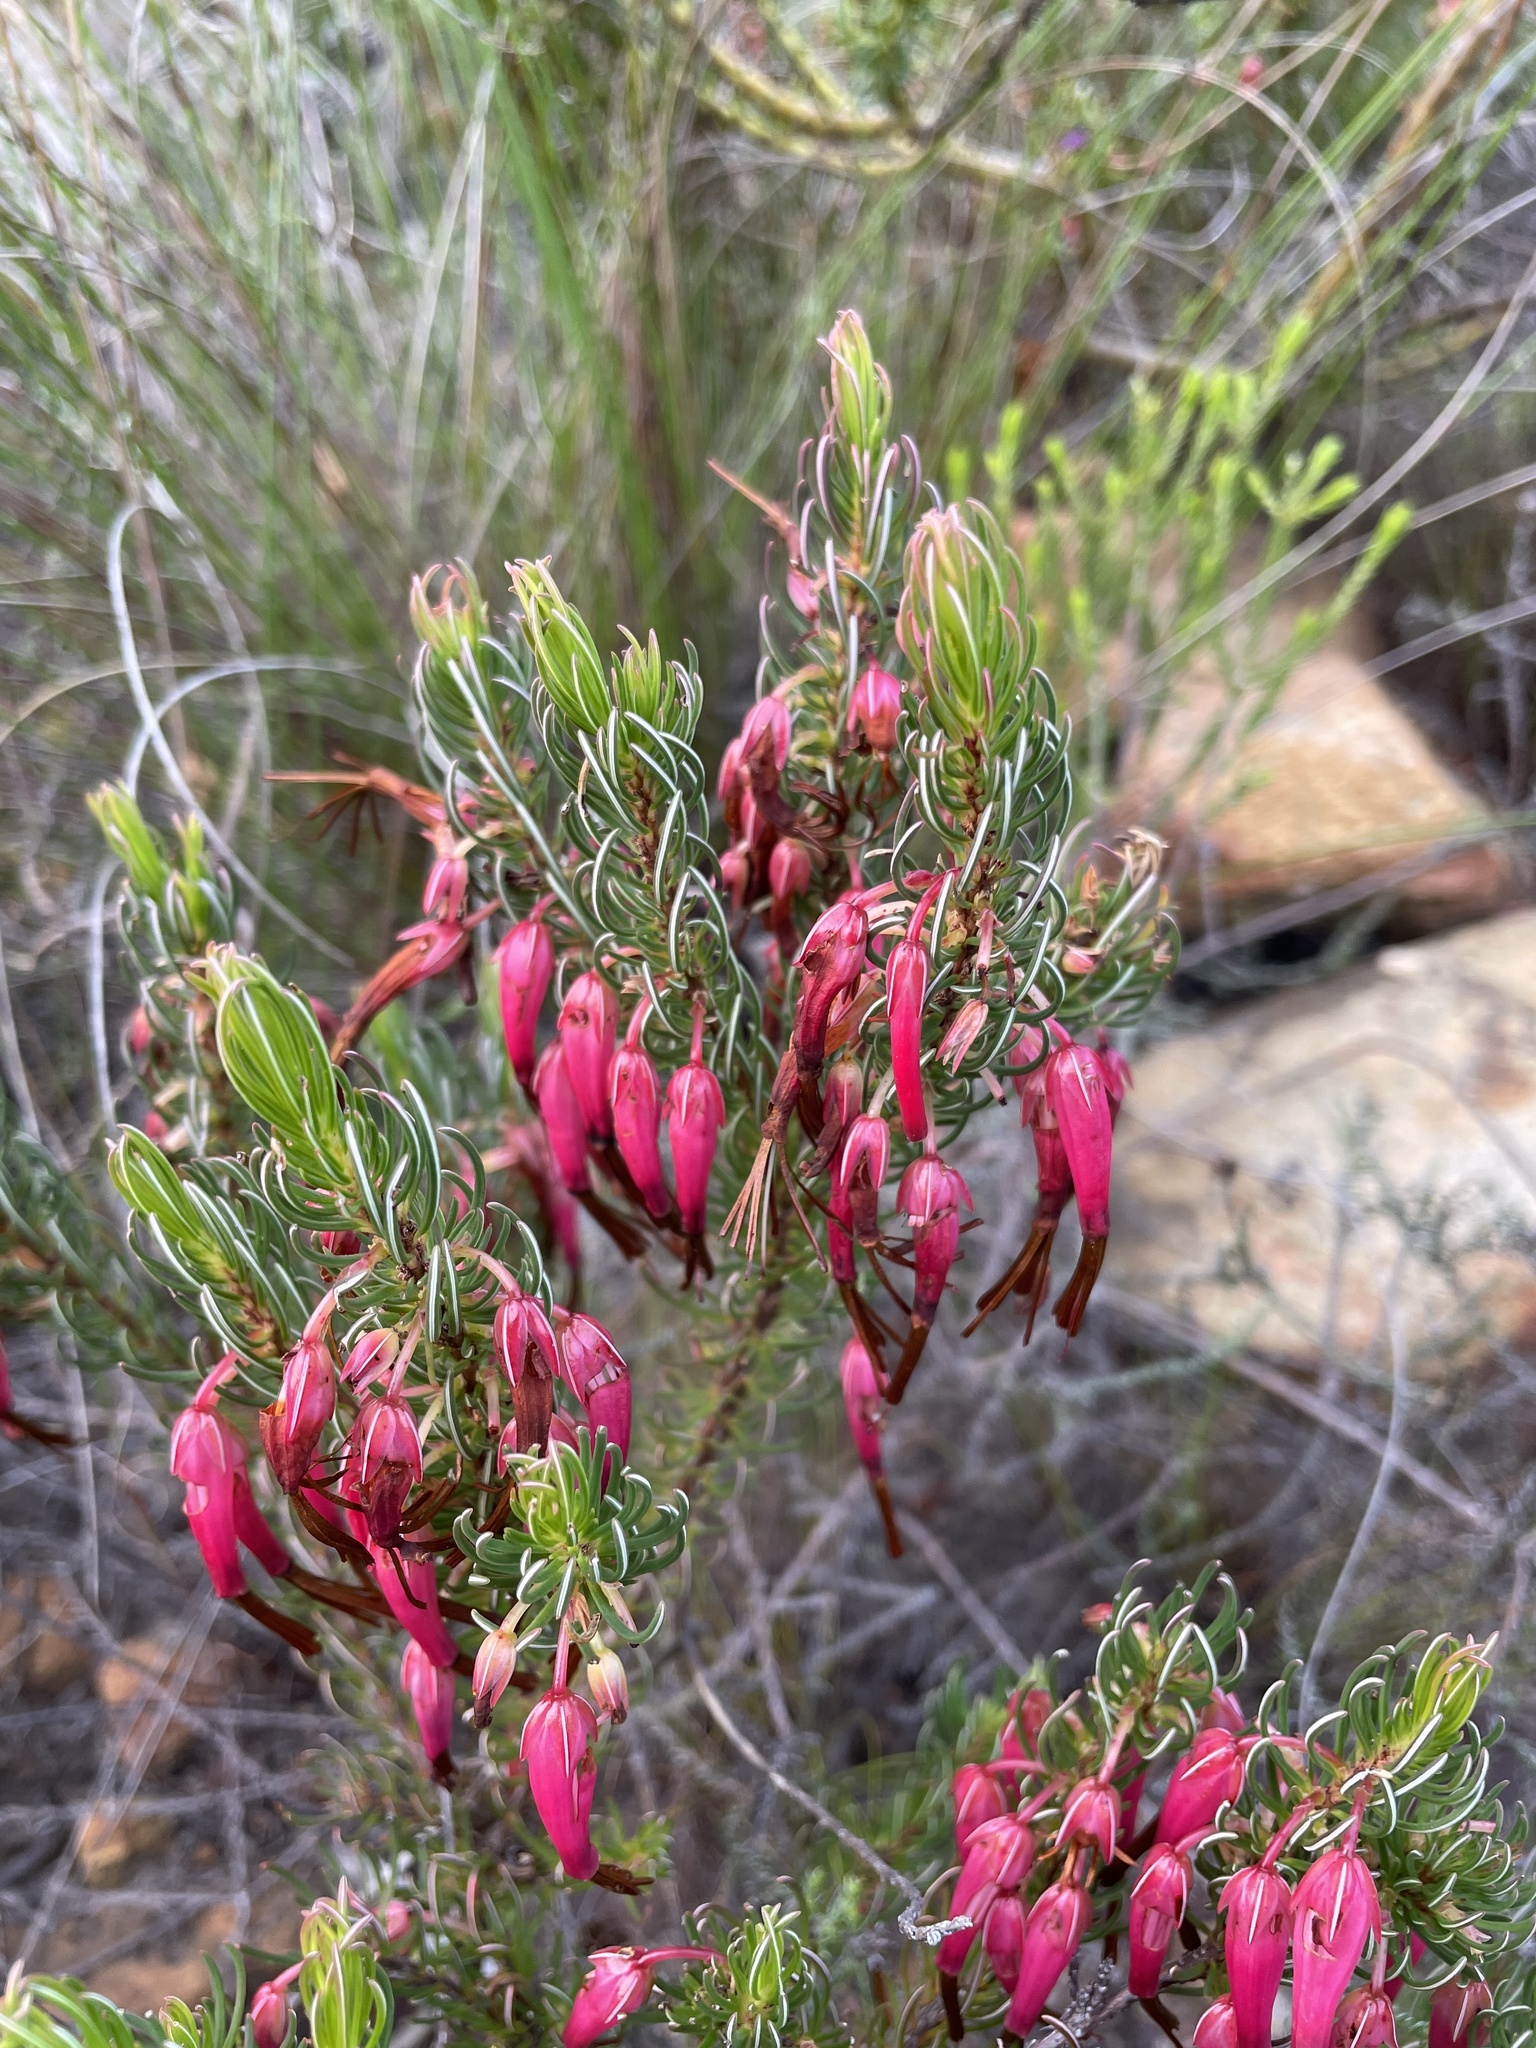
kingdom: Plantae
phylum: Tracheophyta
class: Magnoliopsida
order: Ericales
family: Ericaceae
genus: Erica
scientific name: Erica plukenetii
